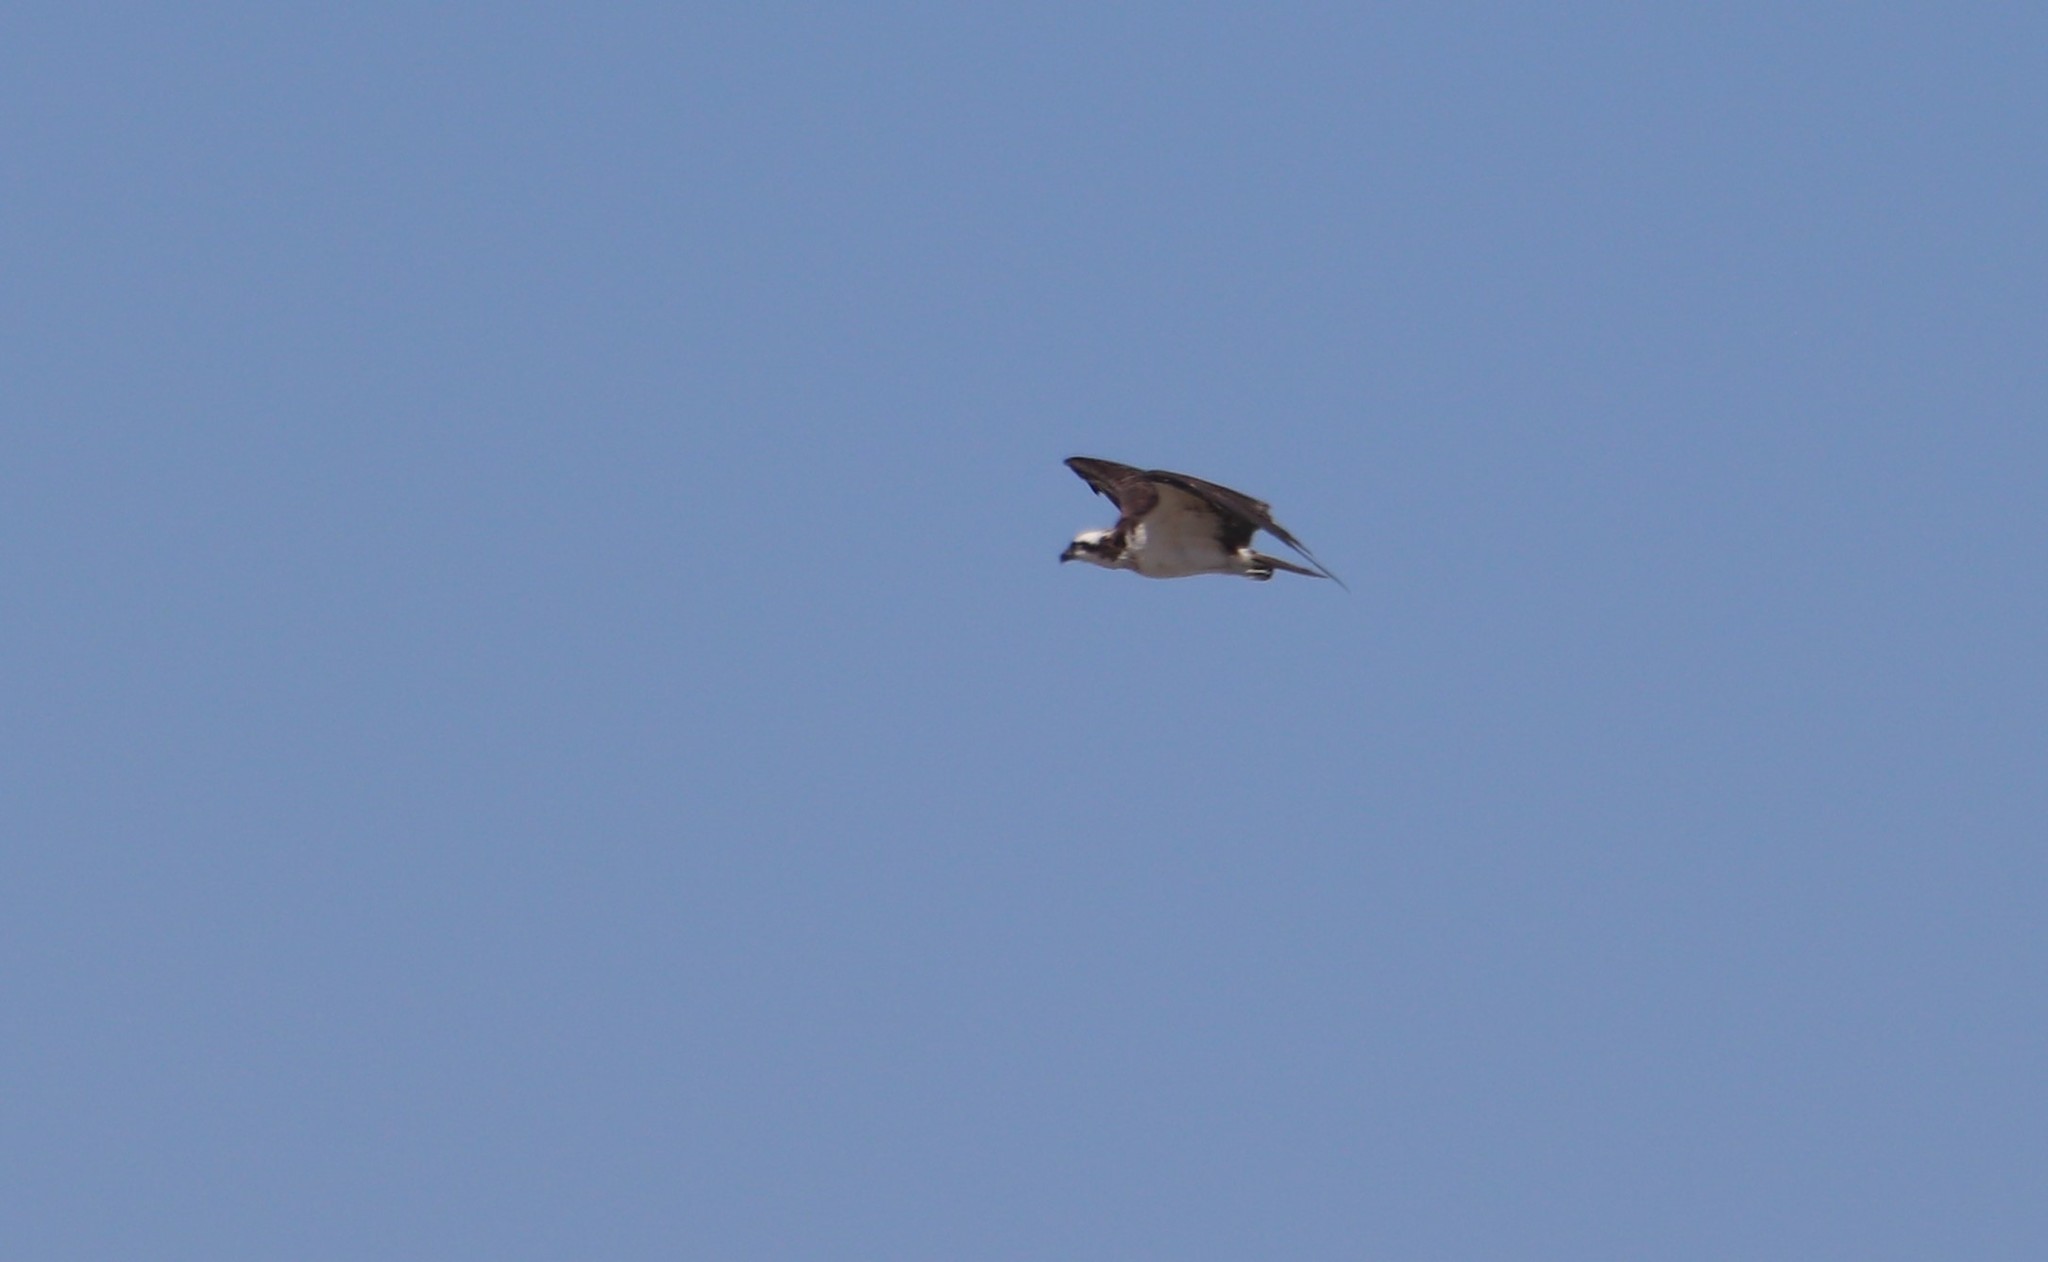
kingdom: Animalia
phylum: Chordata
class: Aves
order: Accipitriformes
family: Pandionidae
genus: Pandion
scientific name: Pandion haliaetus
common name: Osprey
